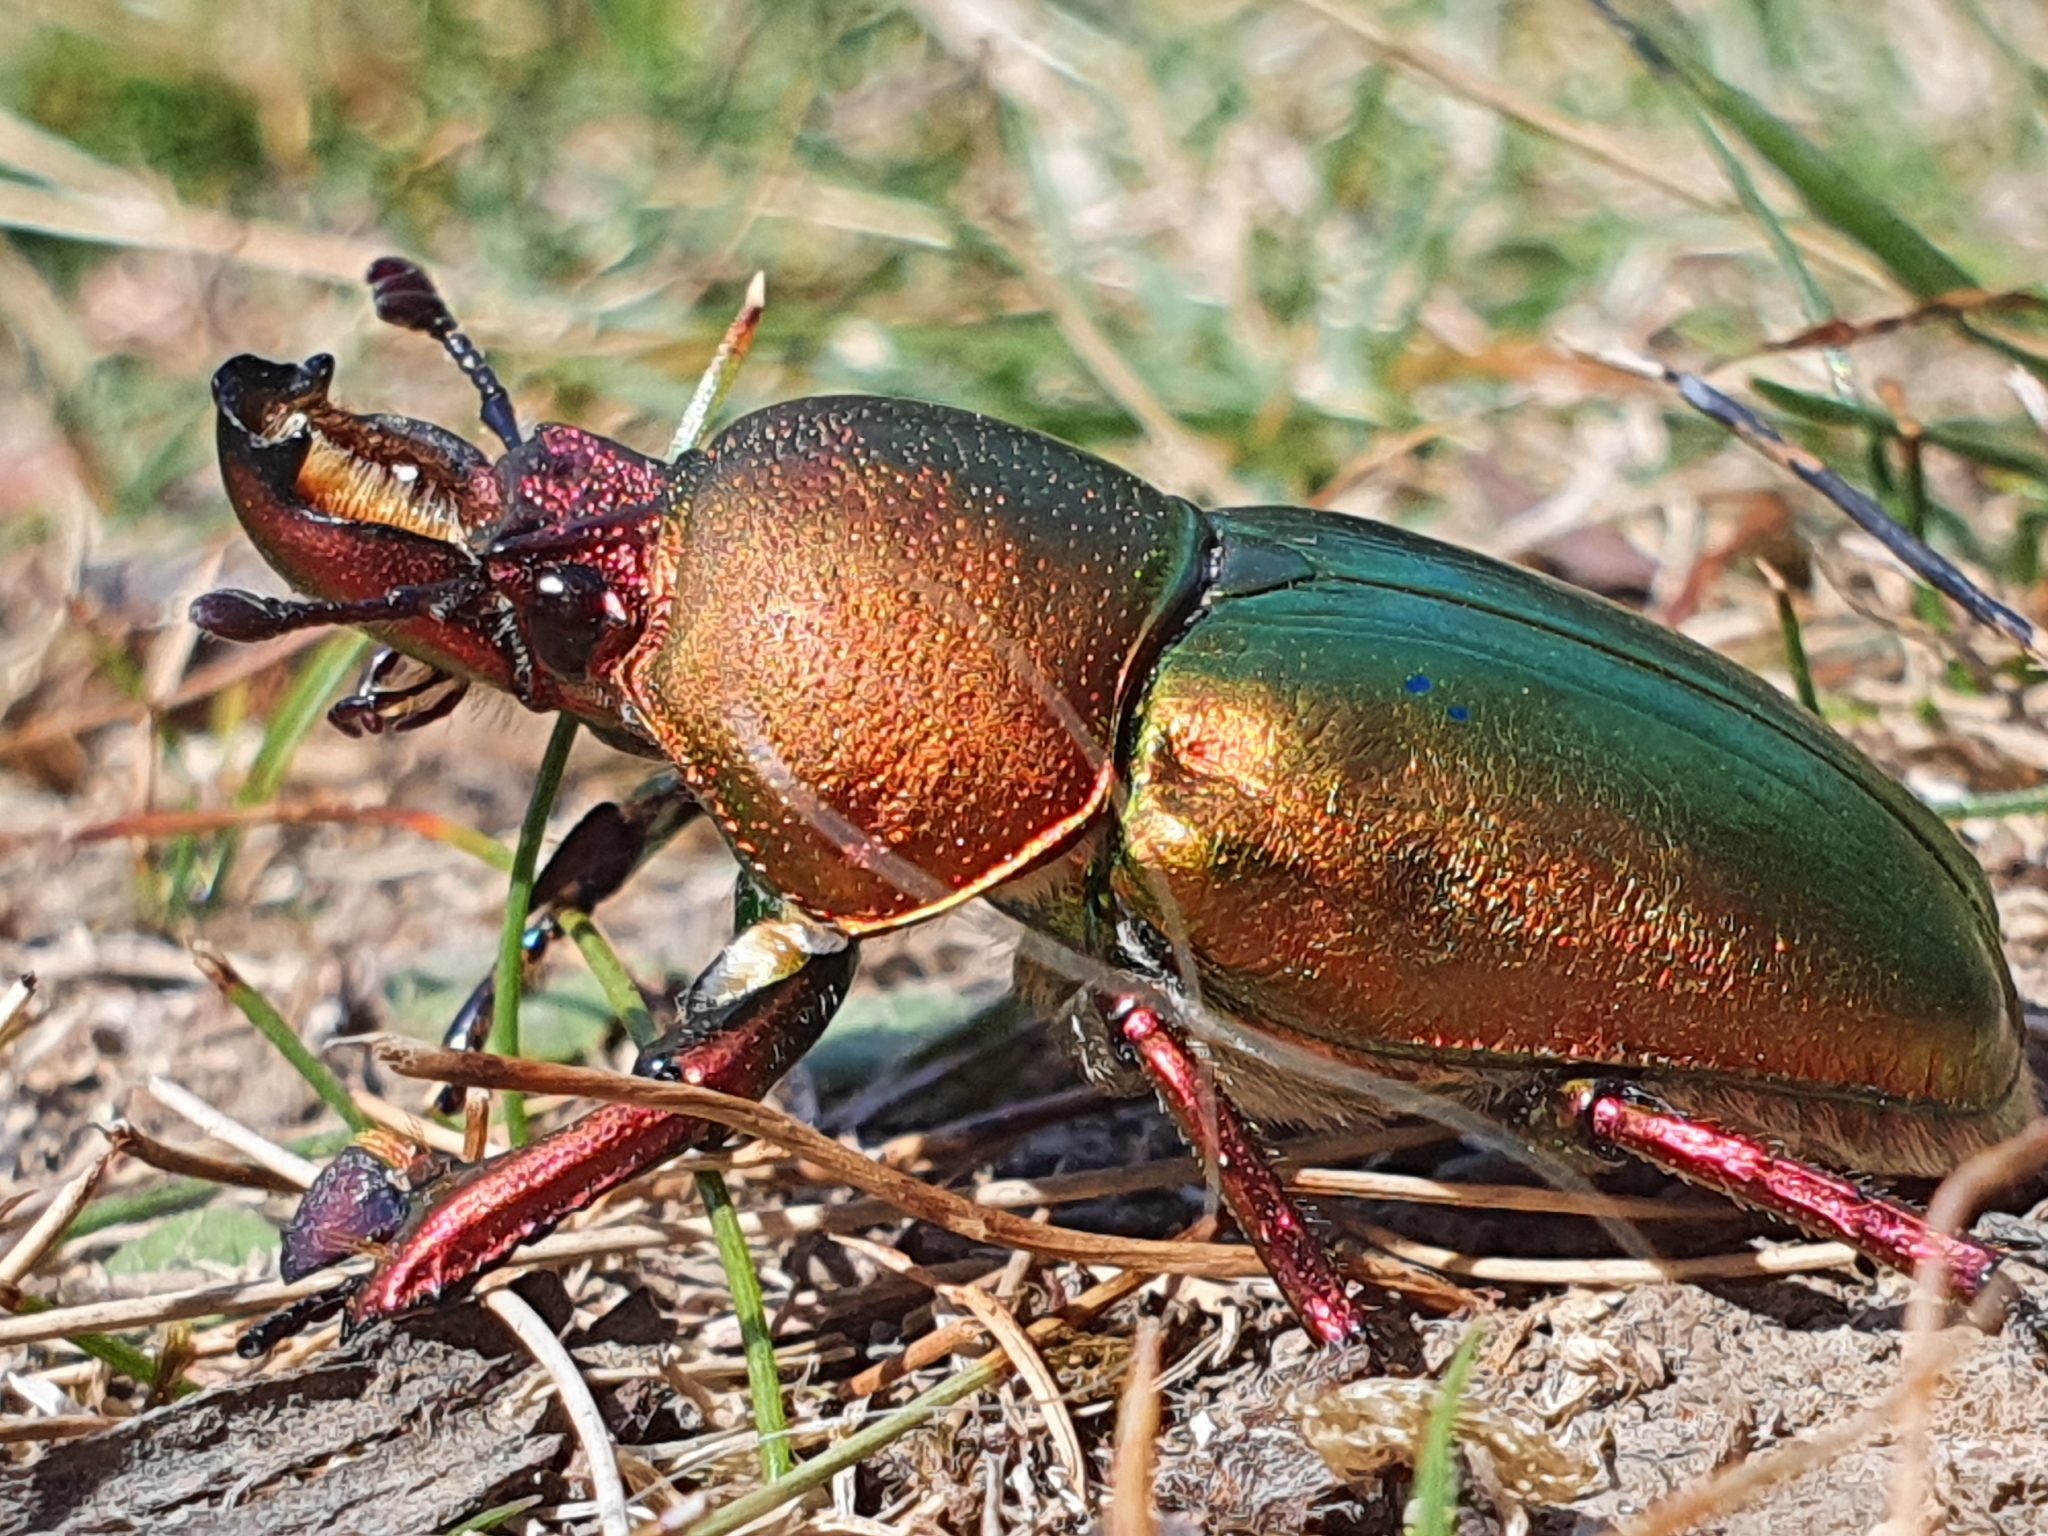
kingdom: Animalia
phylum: Arthropoda
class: Insecta
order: Coleoptera
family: Lucanidae
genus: Lamprima
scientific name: Lamprima aurata
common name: Golden stag beetle
